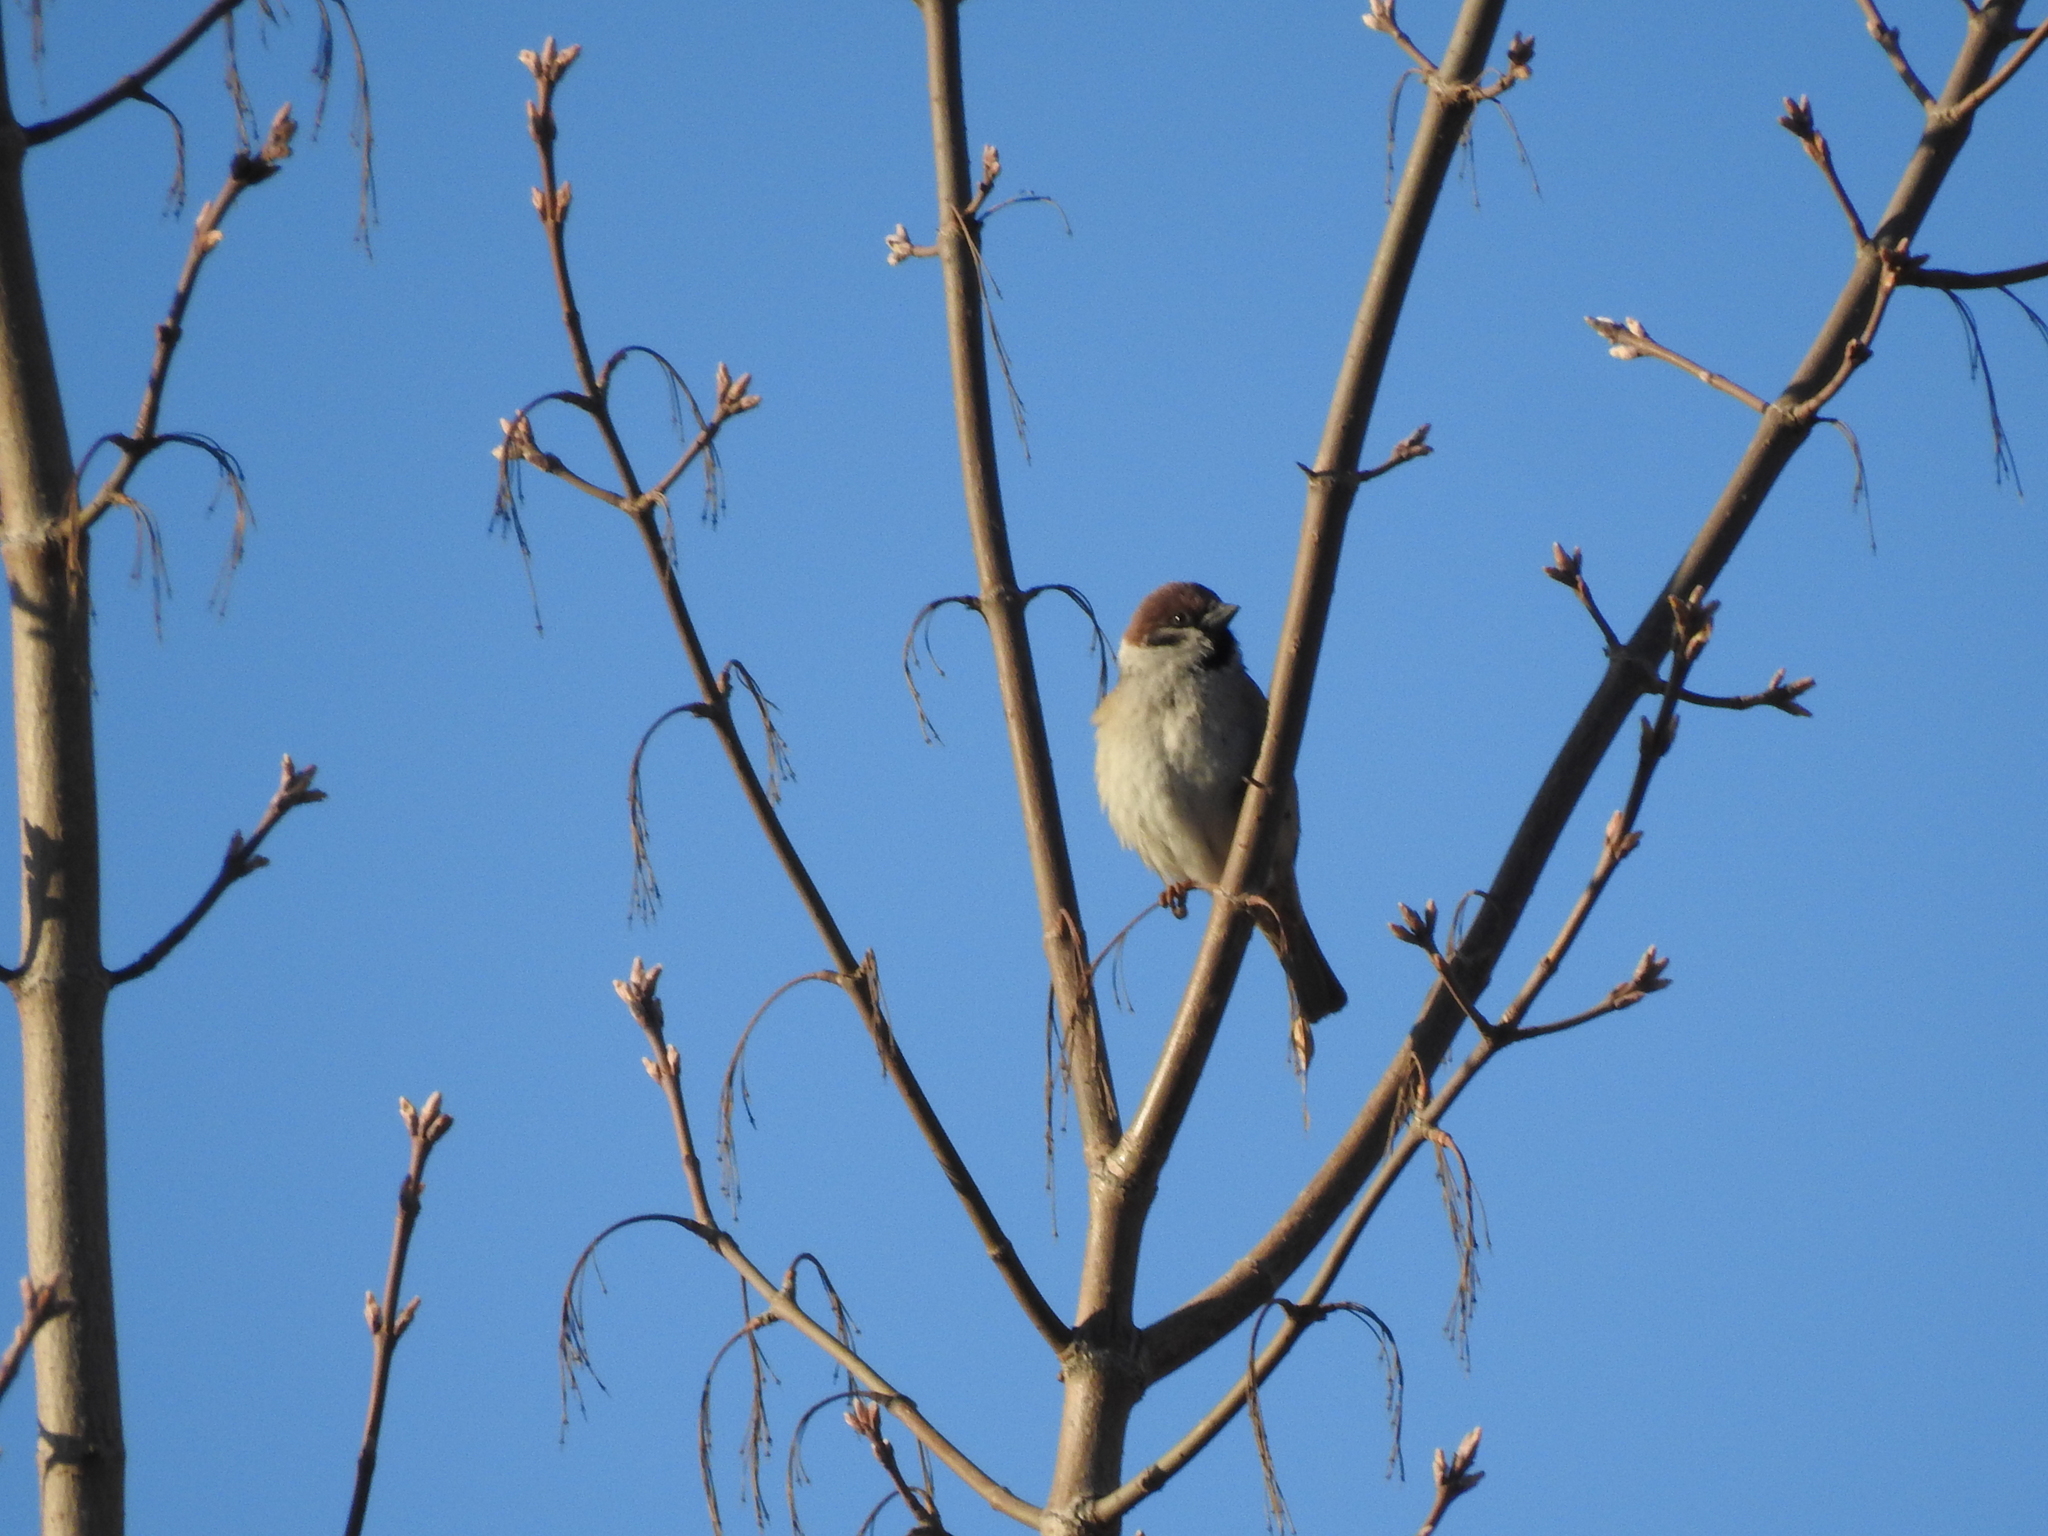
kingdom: Animalia
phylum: Chordata
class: Aves
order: Passeriformes
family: Passeridae
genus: Passer
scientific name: Passer montanus
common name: Eurasian tree sparrow
